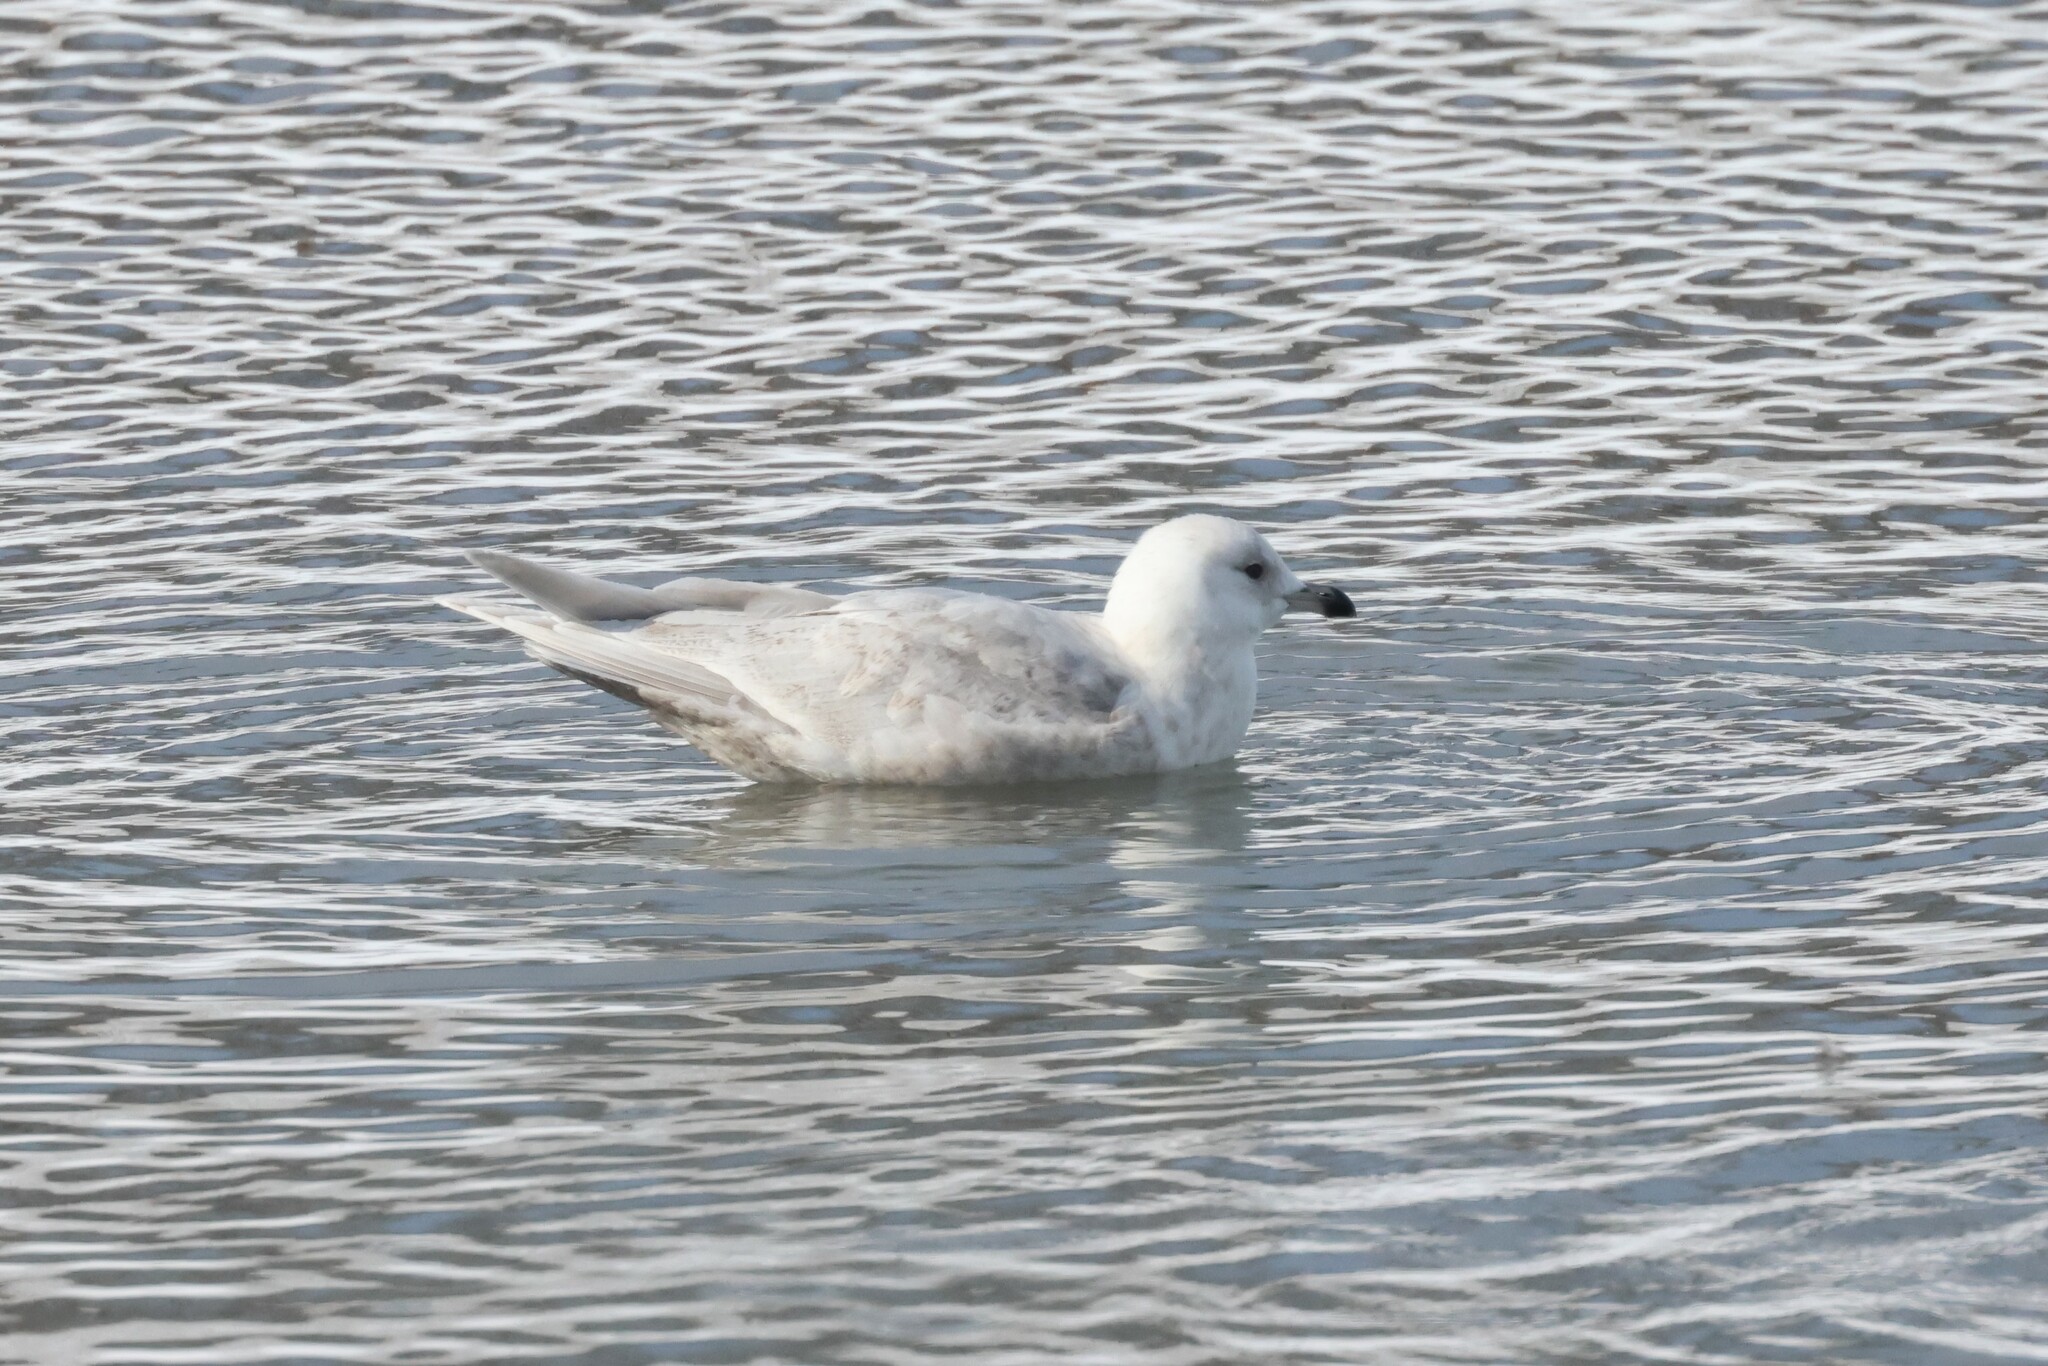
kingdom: Animalia
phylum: Chordata
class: Aves
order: Charadriiformes
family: Laridae
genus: Larus
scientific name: Larus glaucoides
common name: Iceland gull
